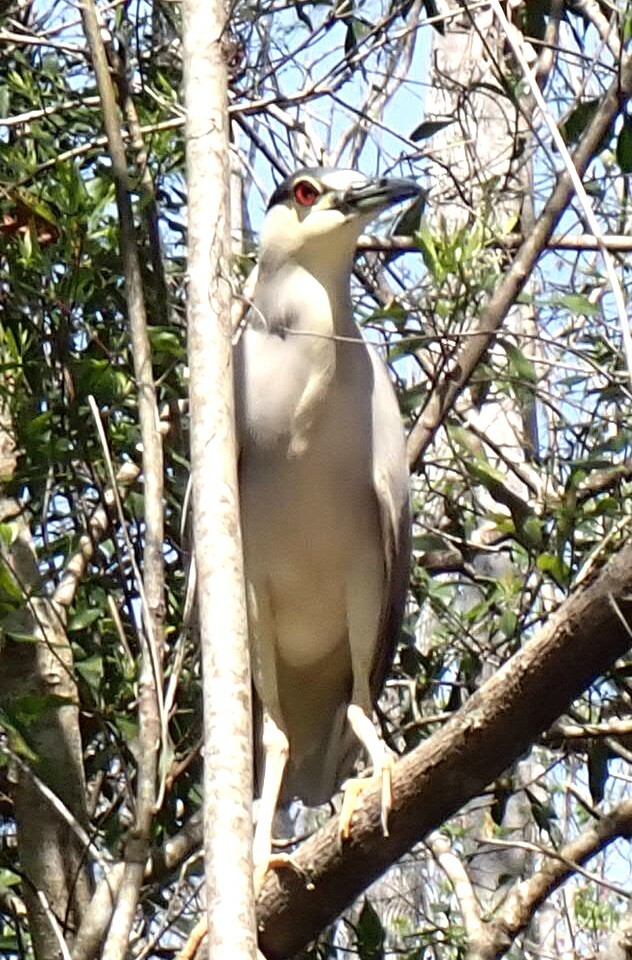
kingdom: Animalia
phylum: Chordata
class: Aves
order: Pelecaniformes
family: Ardeidae
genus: Nycticorax
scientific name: Nycticorax nycticorax
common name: Black-crowned night heron
